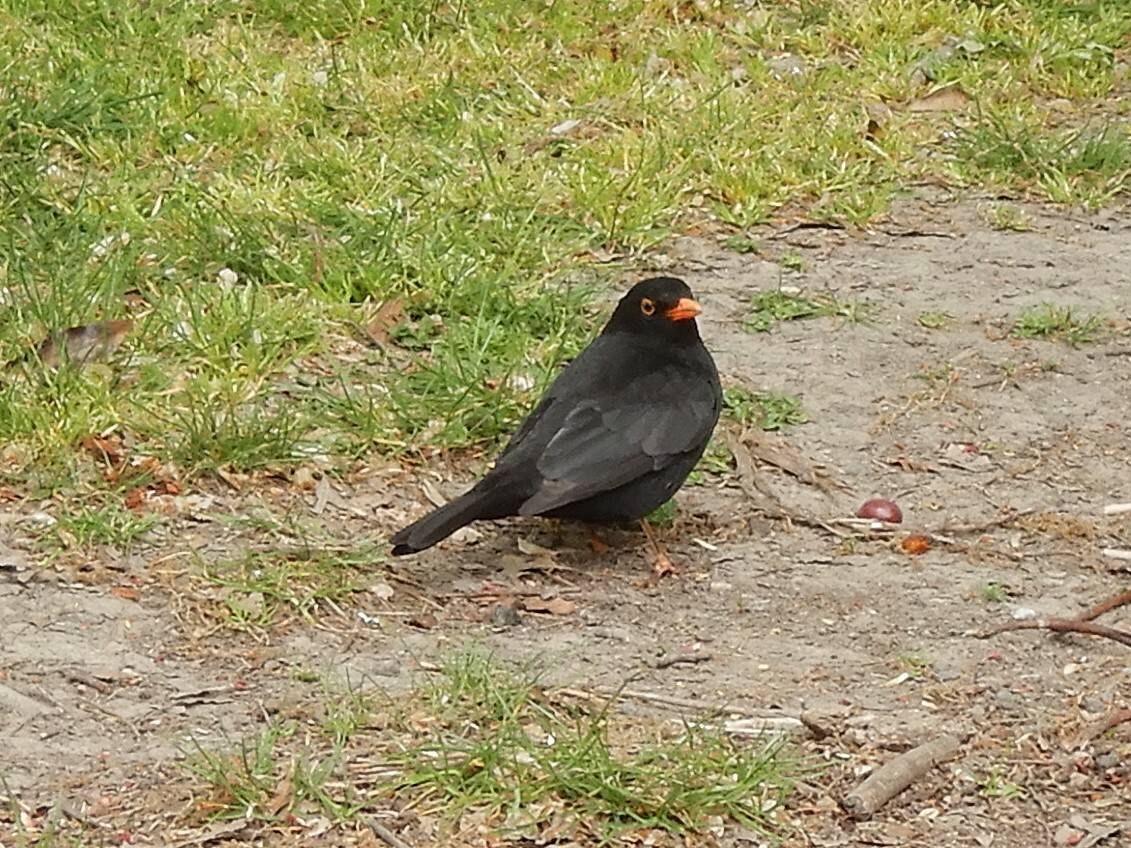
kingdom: Animalia
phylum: Chordata
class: Aves
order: Passeriformes
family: Turdidae
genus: Turdus
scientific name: Turdus merula
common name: Common blackbird
